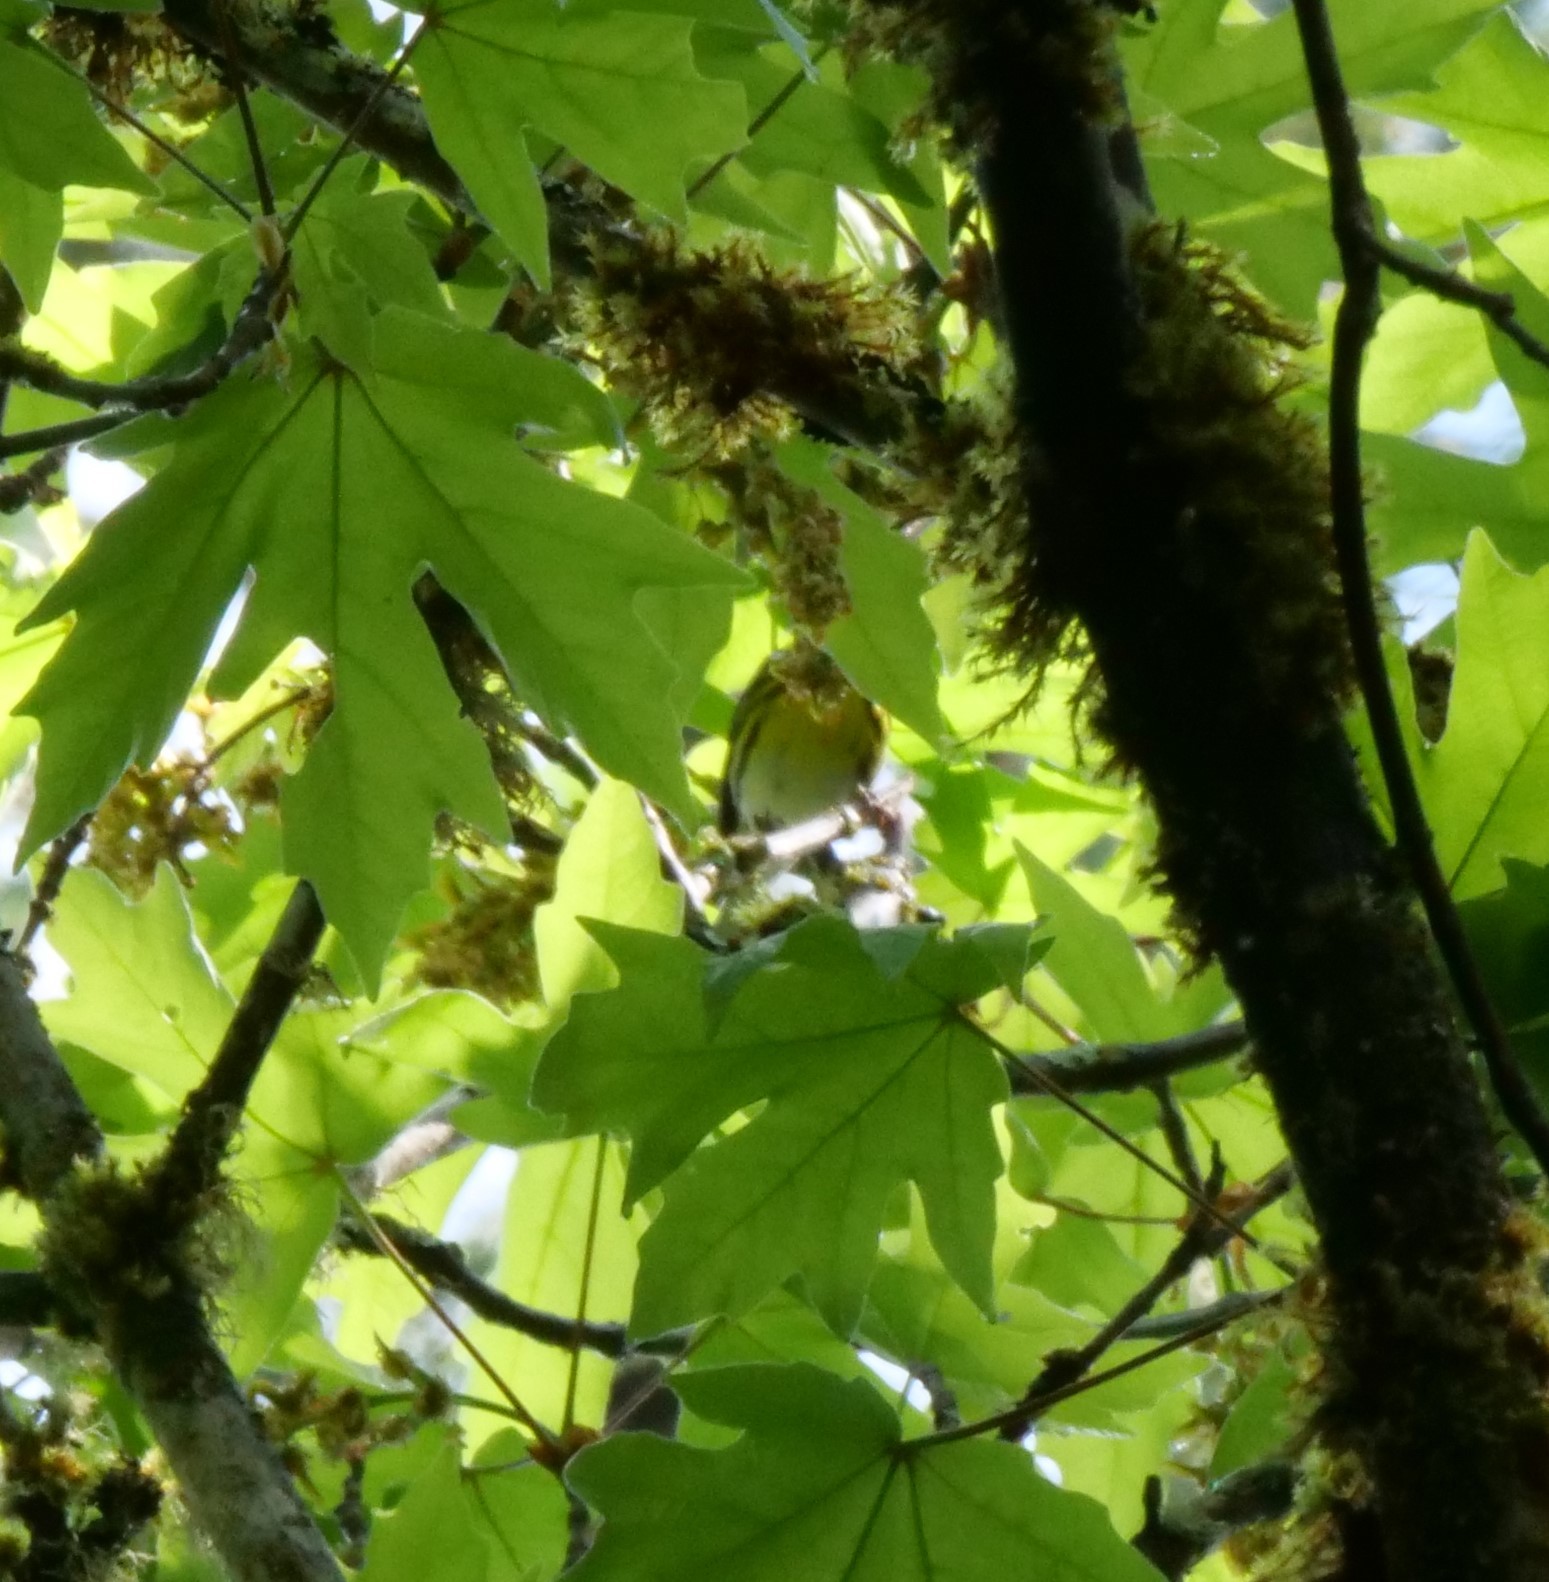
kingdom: Animalia
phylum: Chordata
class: Aves
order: Passeriformes
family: Parulidae
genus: Setophaga
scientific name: Setophaga townsendi
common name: Townsend's warbler
